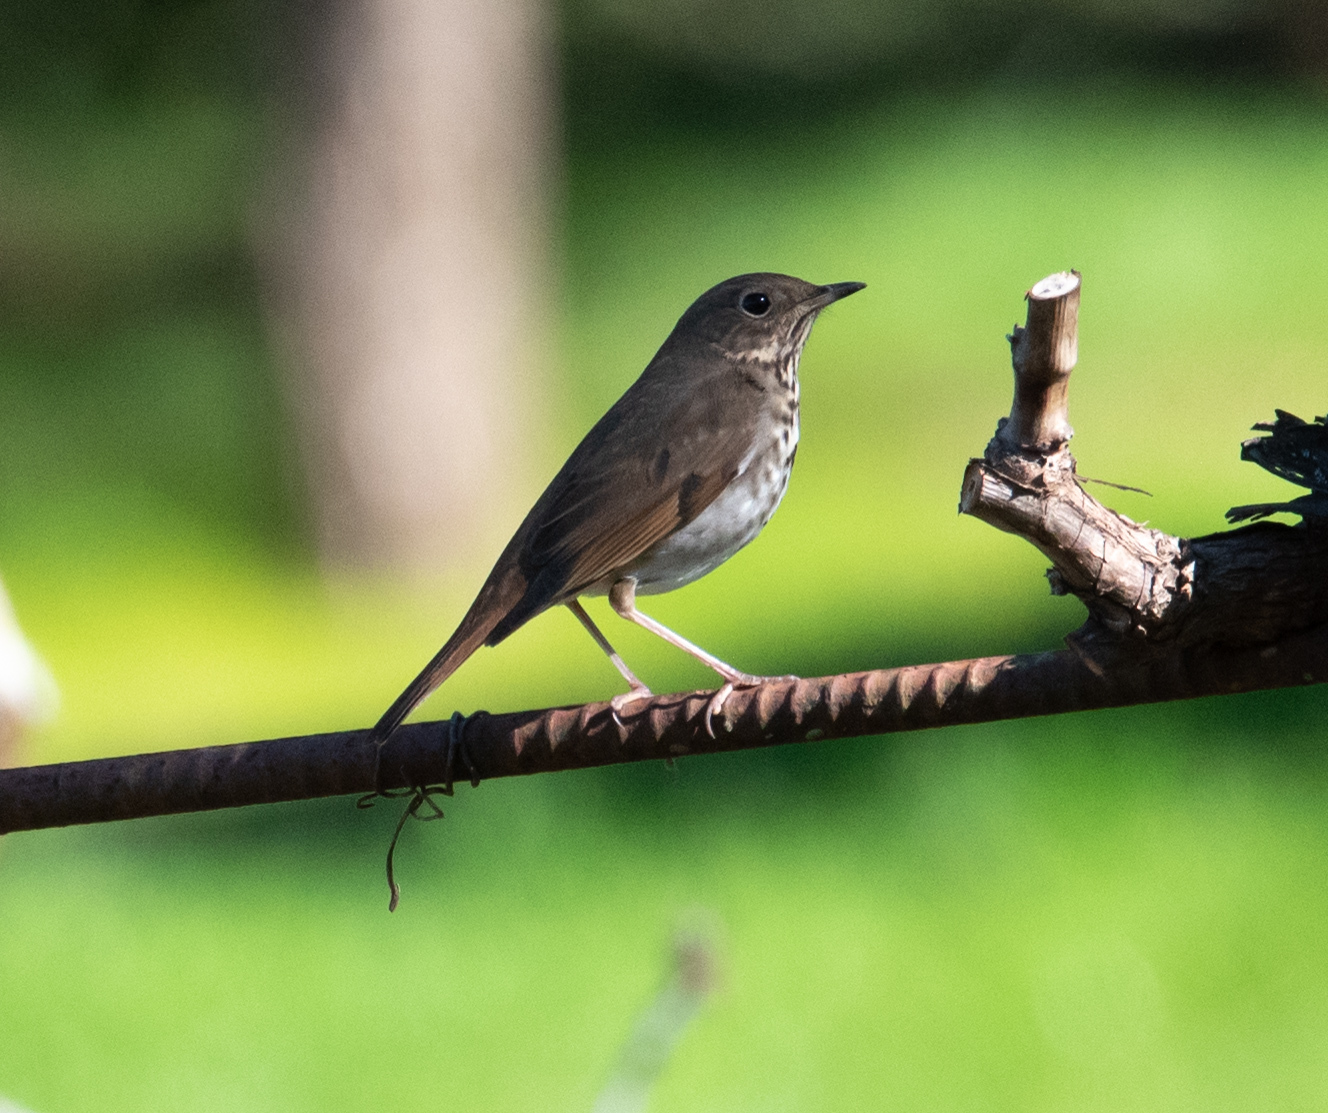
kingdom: Animalia
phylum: Chordata
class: Aves
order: Passeriformes
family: Turdidae
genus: Catharus
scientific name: Catharus guttatus
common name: Hermit thrush
